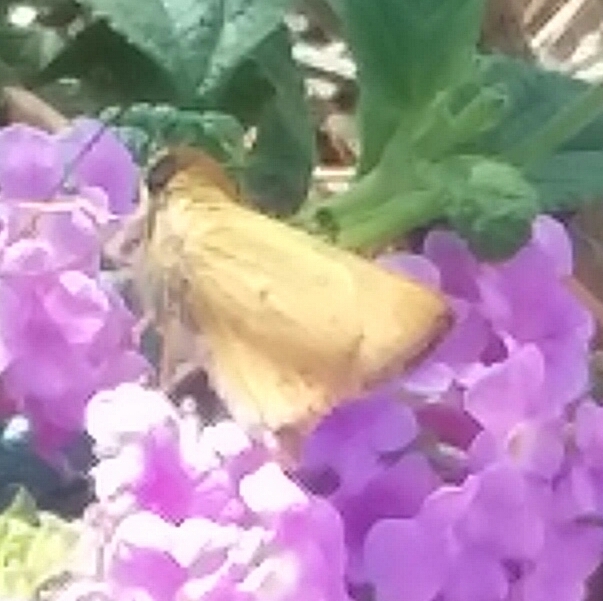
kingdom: Animalia
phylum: Arthropoda
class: Insecta
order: Lepidoptera
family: Hesperiidae
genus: Hylephila
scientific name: Hylephila phyleus
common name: Fiery skipper
